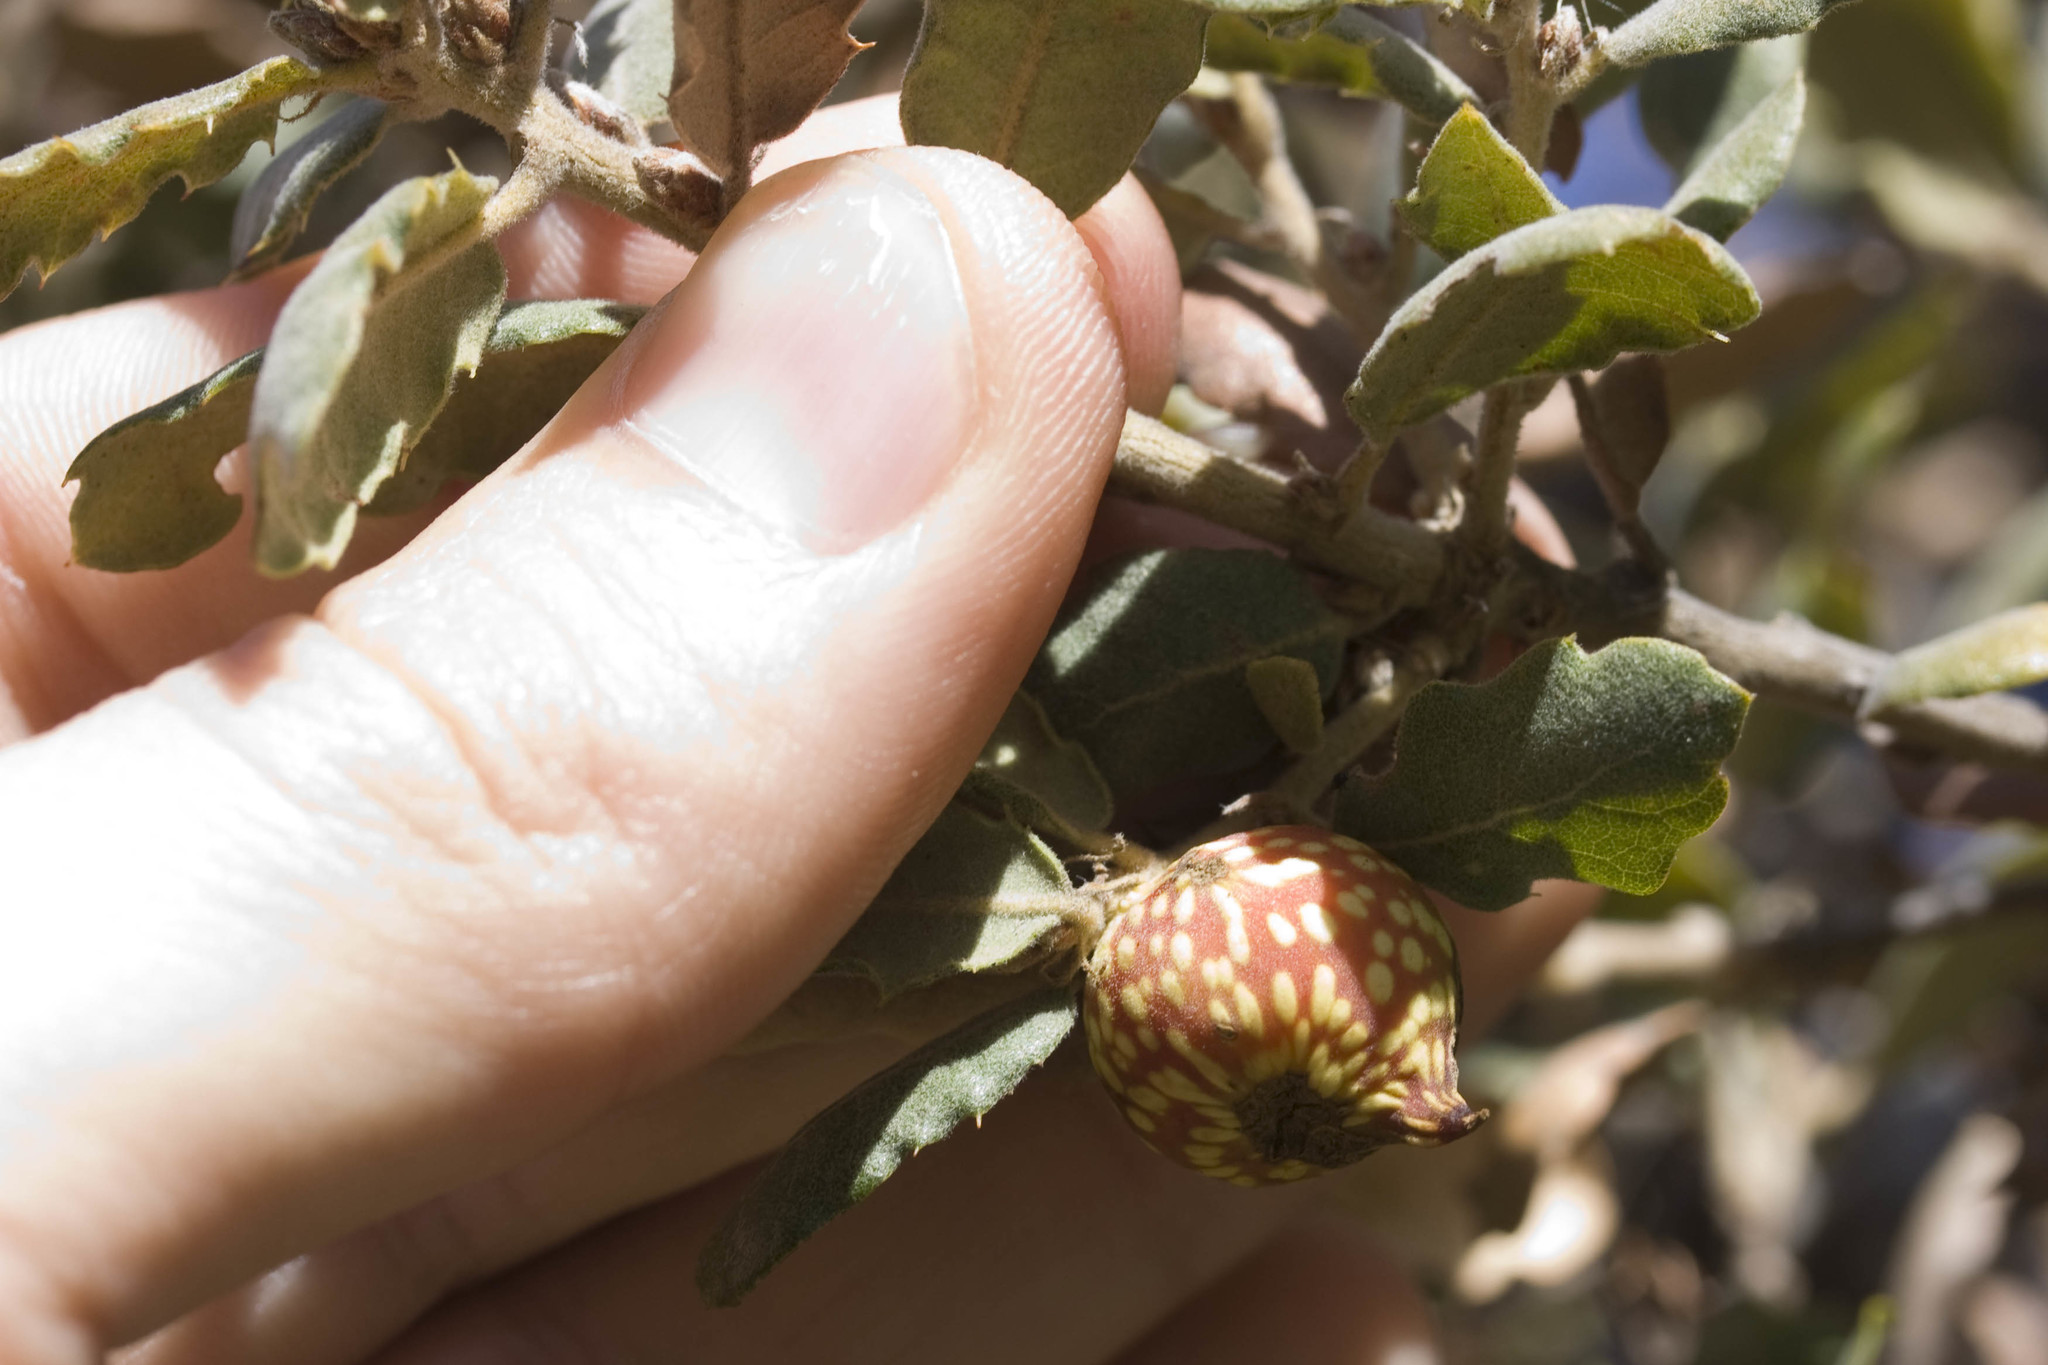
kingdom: Animalia
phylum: Arthropoda
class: Insecta
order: Hymenoptera
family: Cynipidae
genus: Burnettweldia
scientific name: Burnettweldia
